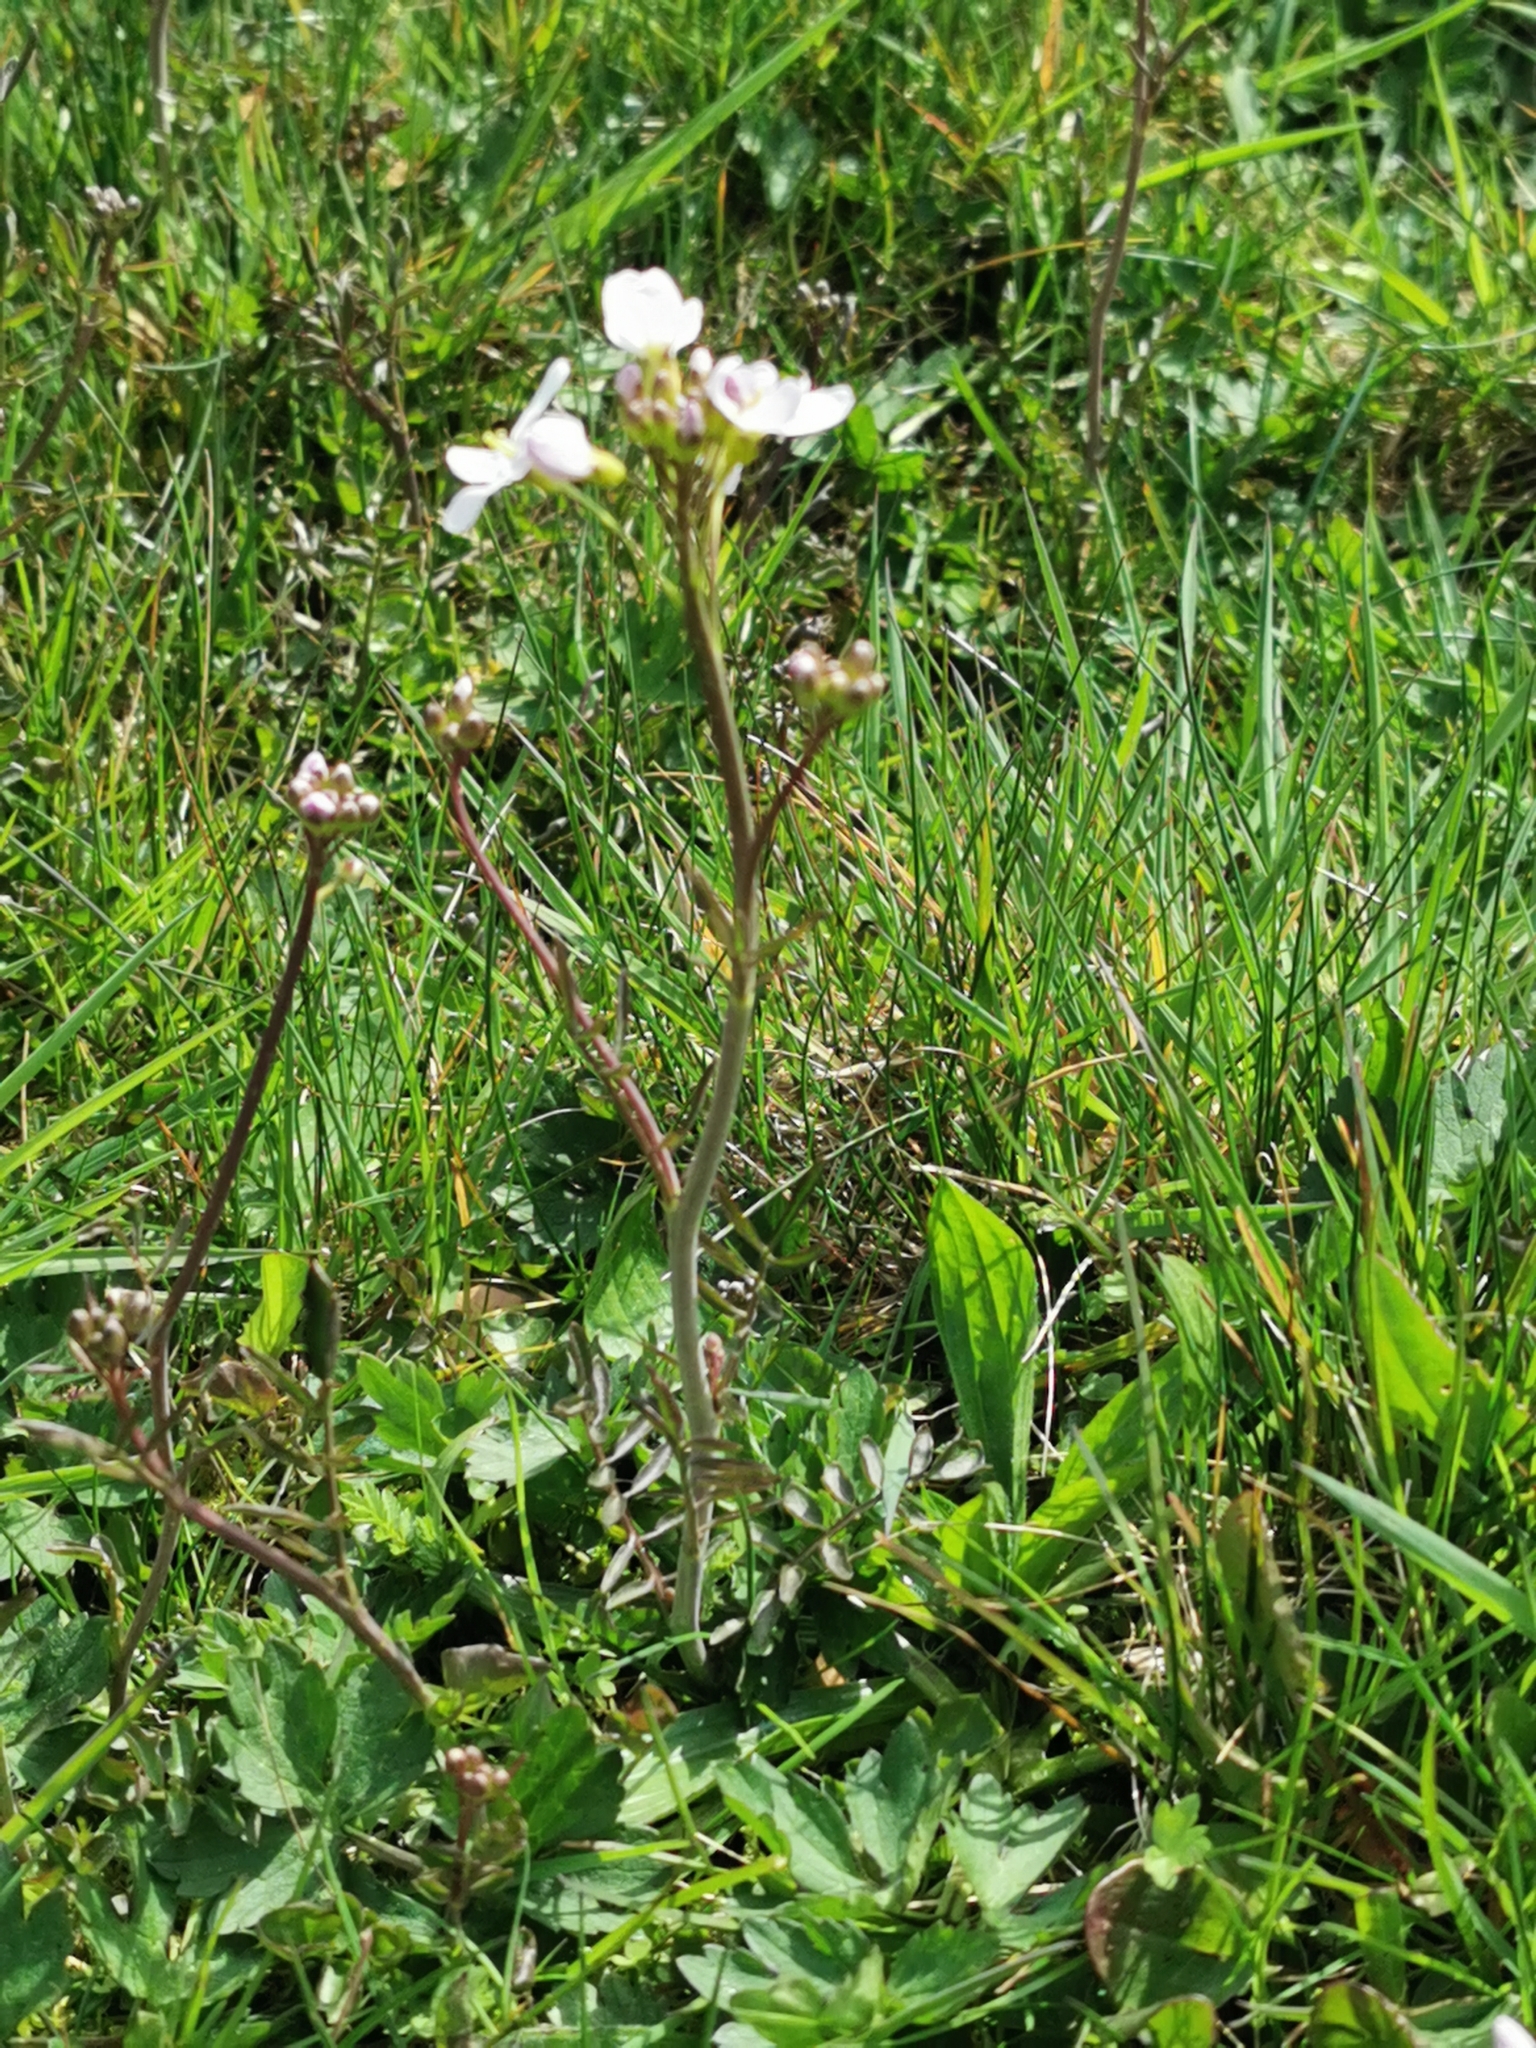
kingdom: Plantae
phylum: Tracheophyta
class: Magnoliopsida
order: Brassicales
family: Brassicaceae
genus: Cardamine
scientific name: Cardamine pratensis
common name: Cuckoo flower
